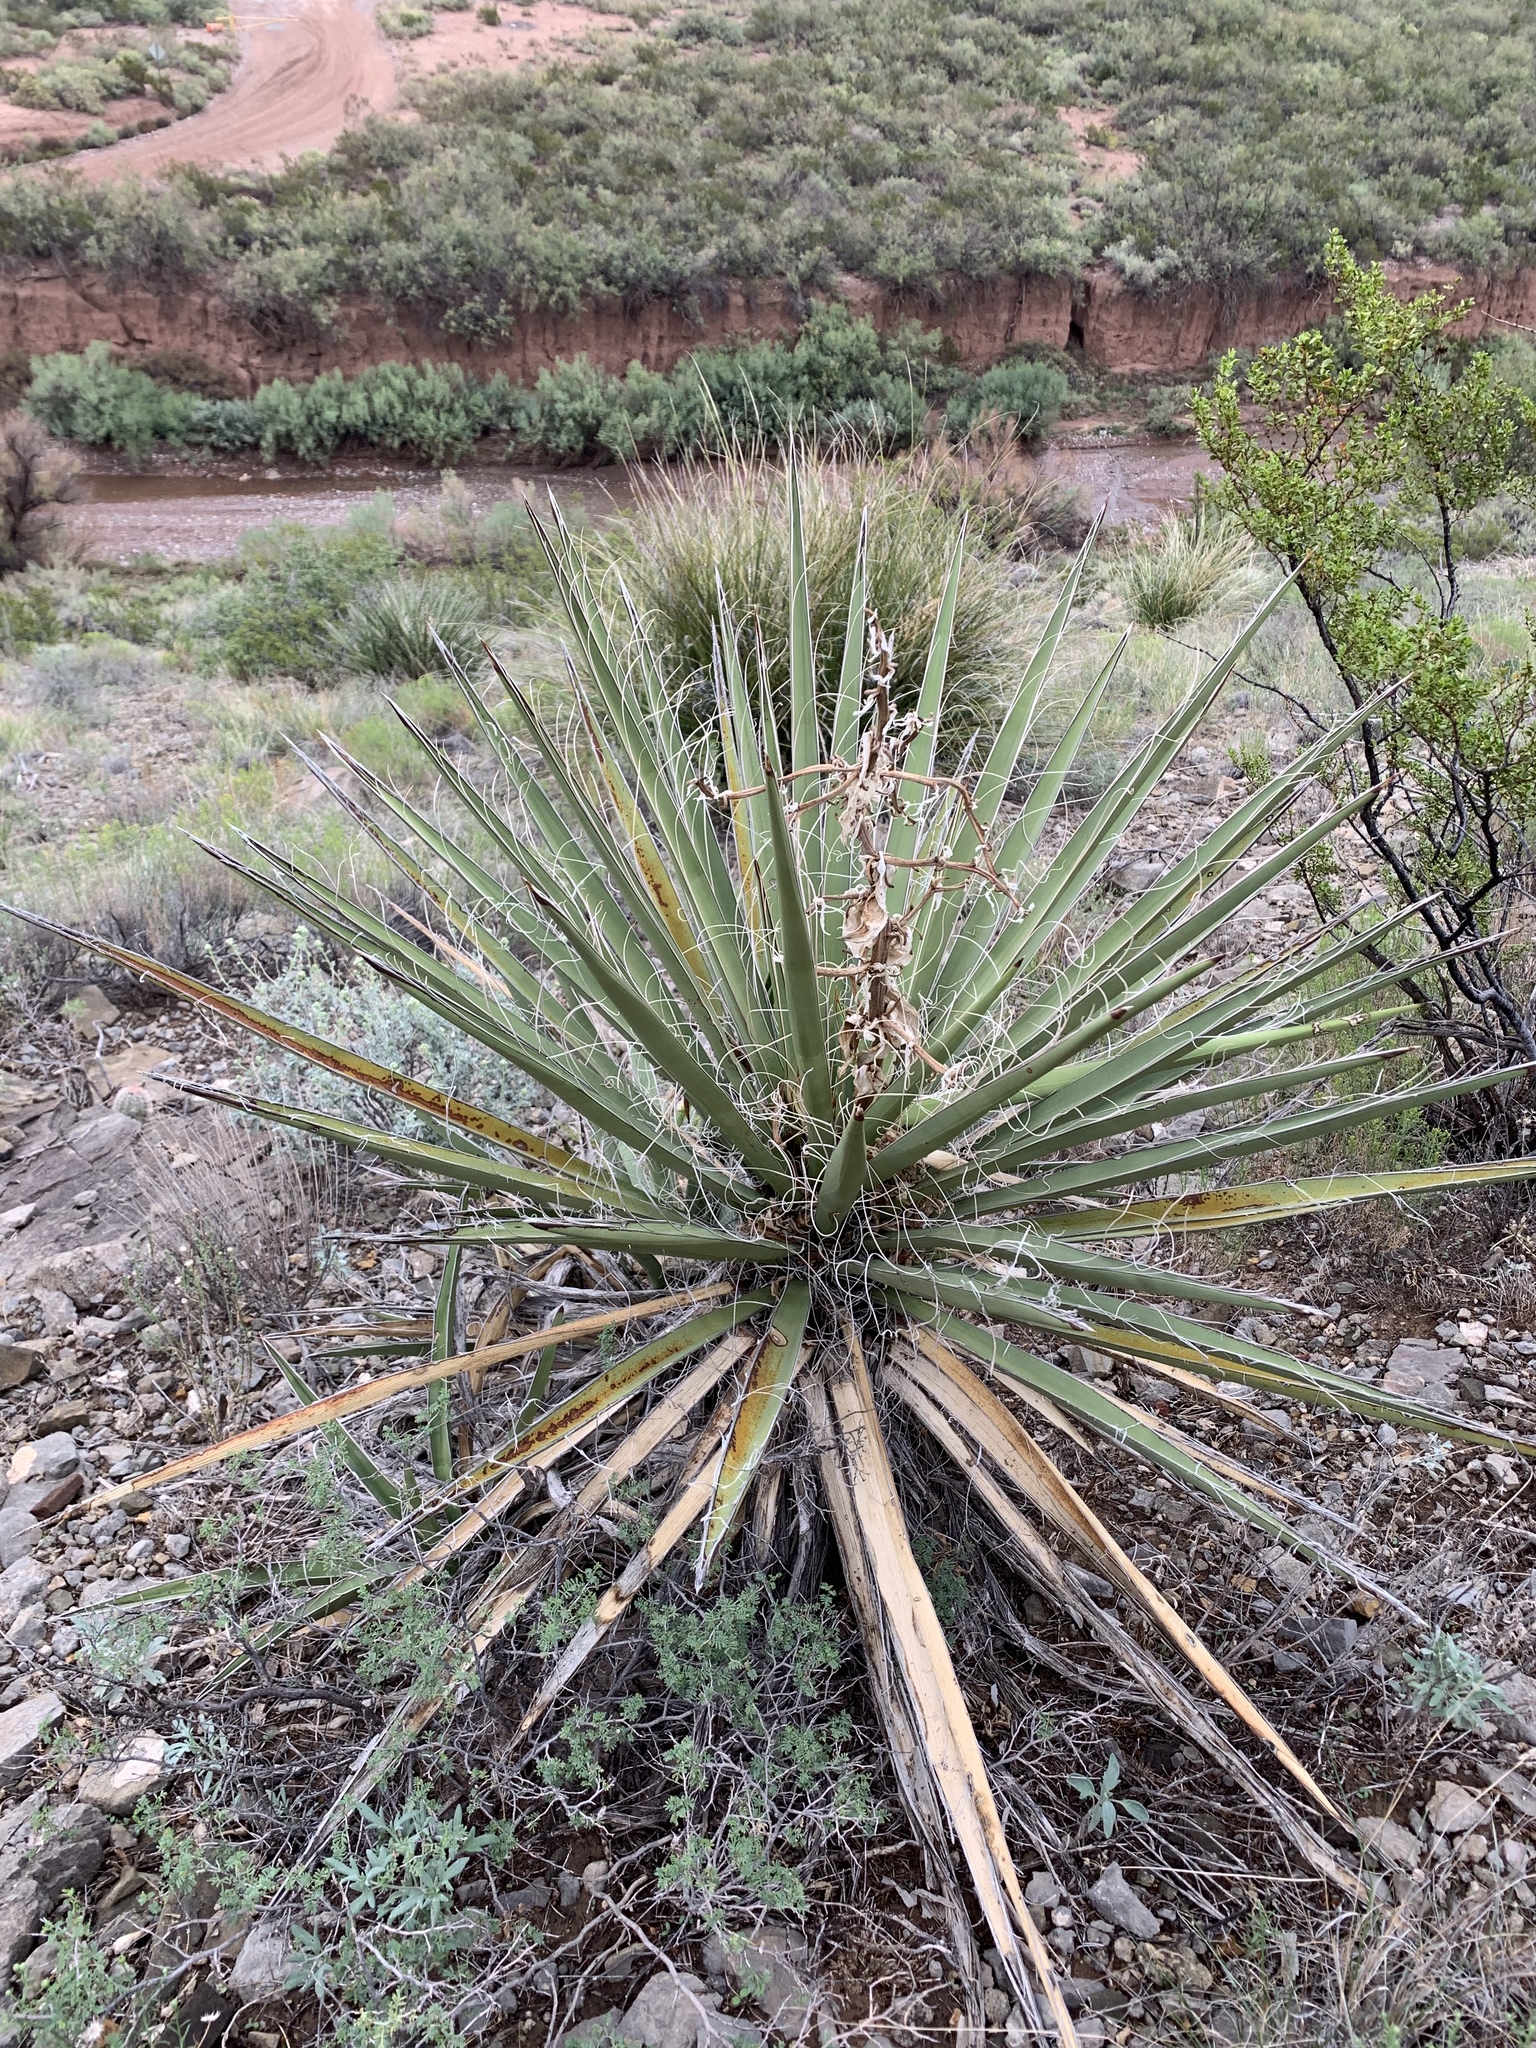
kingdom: Plantae
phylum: Tracheophyta
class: Liliopsida
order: Asparagales
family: Asparagaceae
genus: Yucca
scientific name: Yucca baccata
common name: Banana yucca
